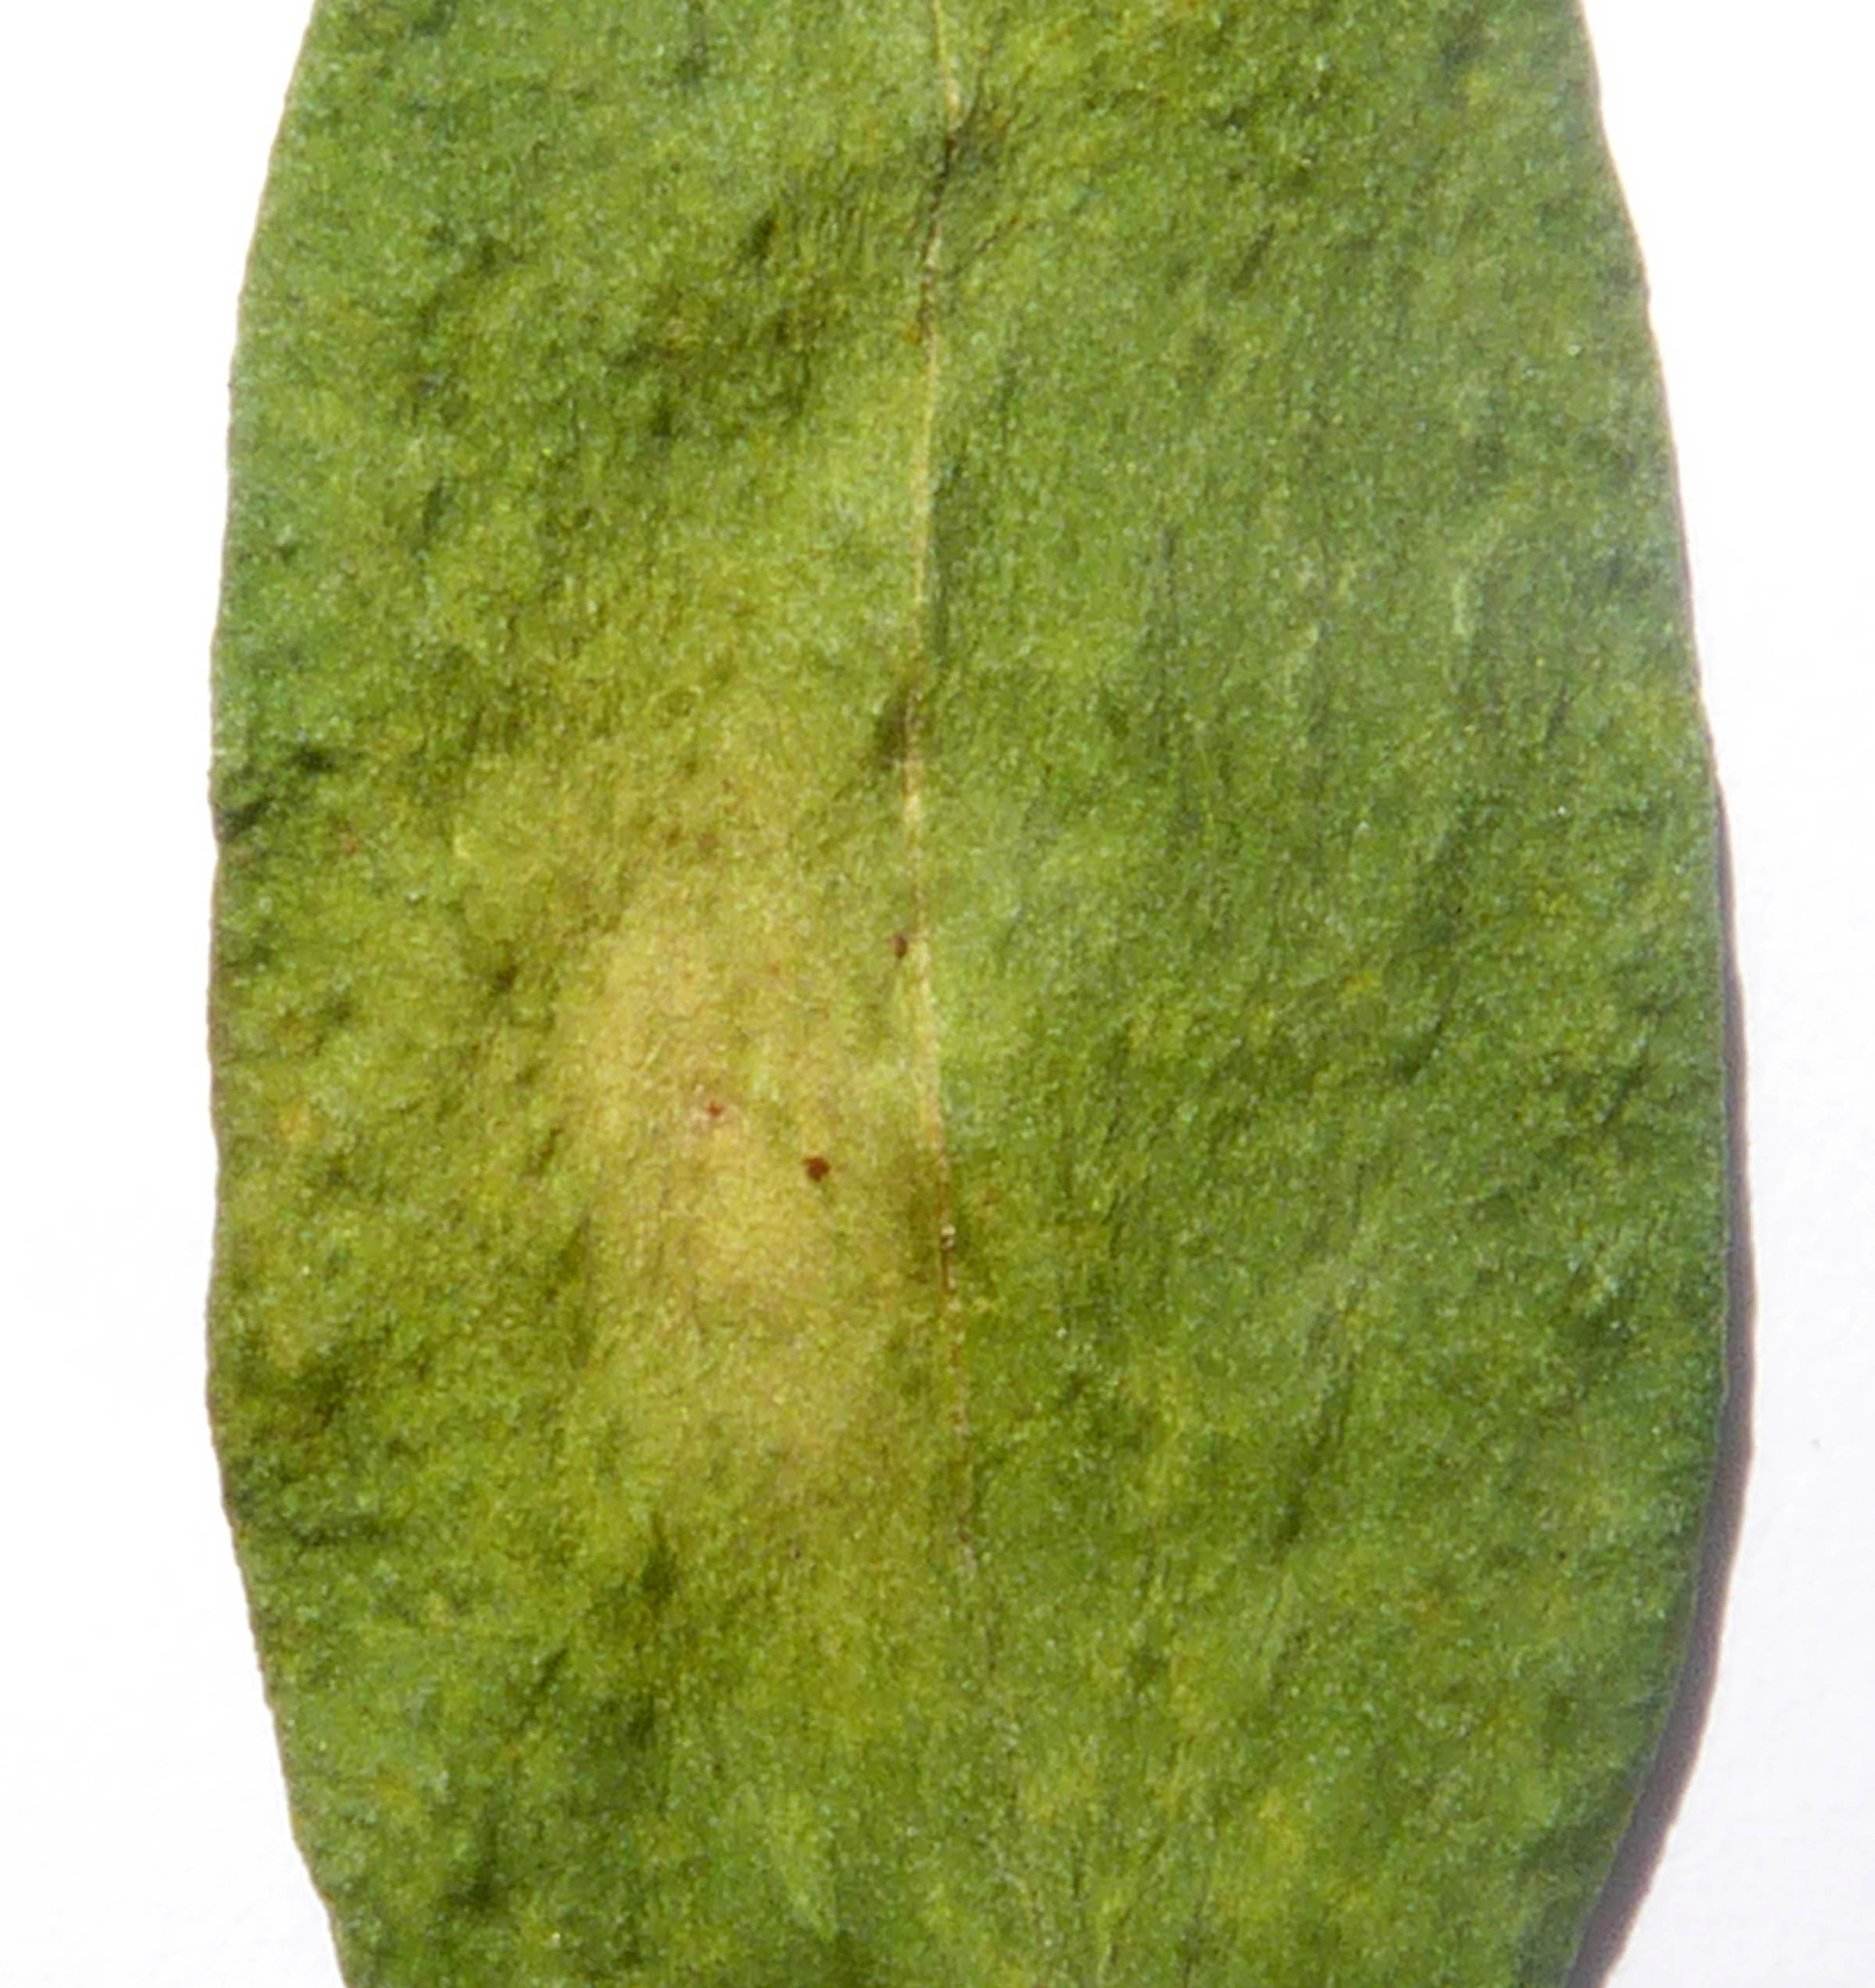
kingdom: Fungi
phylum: Basidiomycota
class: Pucciniomycetes
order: Pucciniales
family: Pucciniaceae
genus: Puccinia
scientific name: Puccinia antirrhini
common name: Antirrhinum rust
